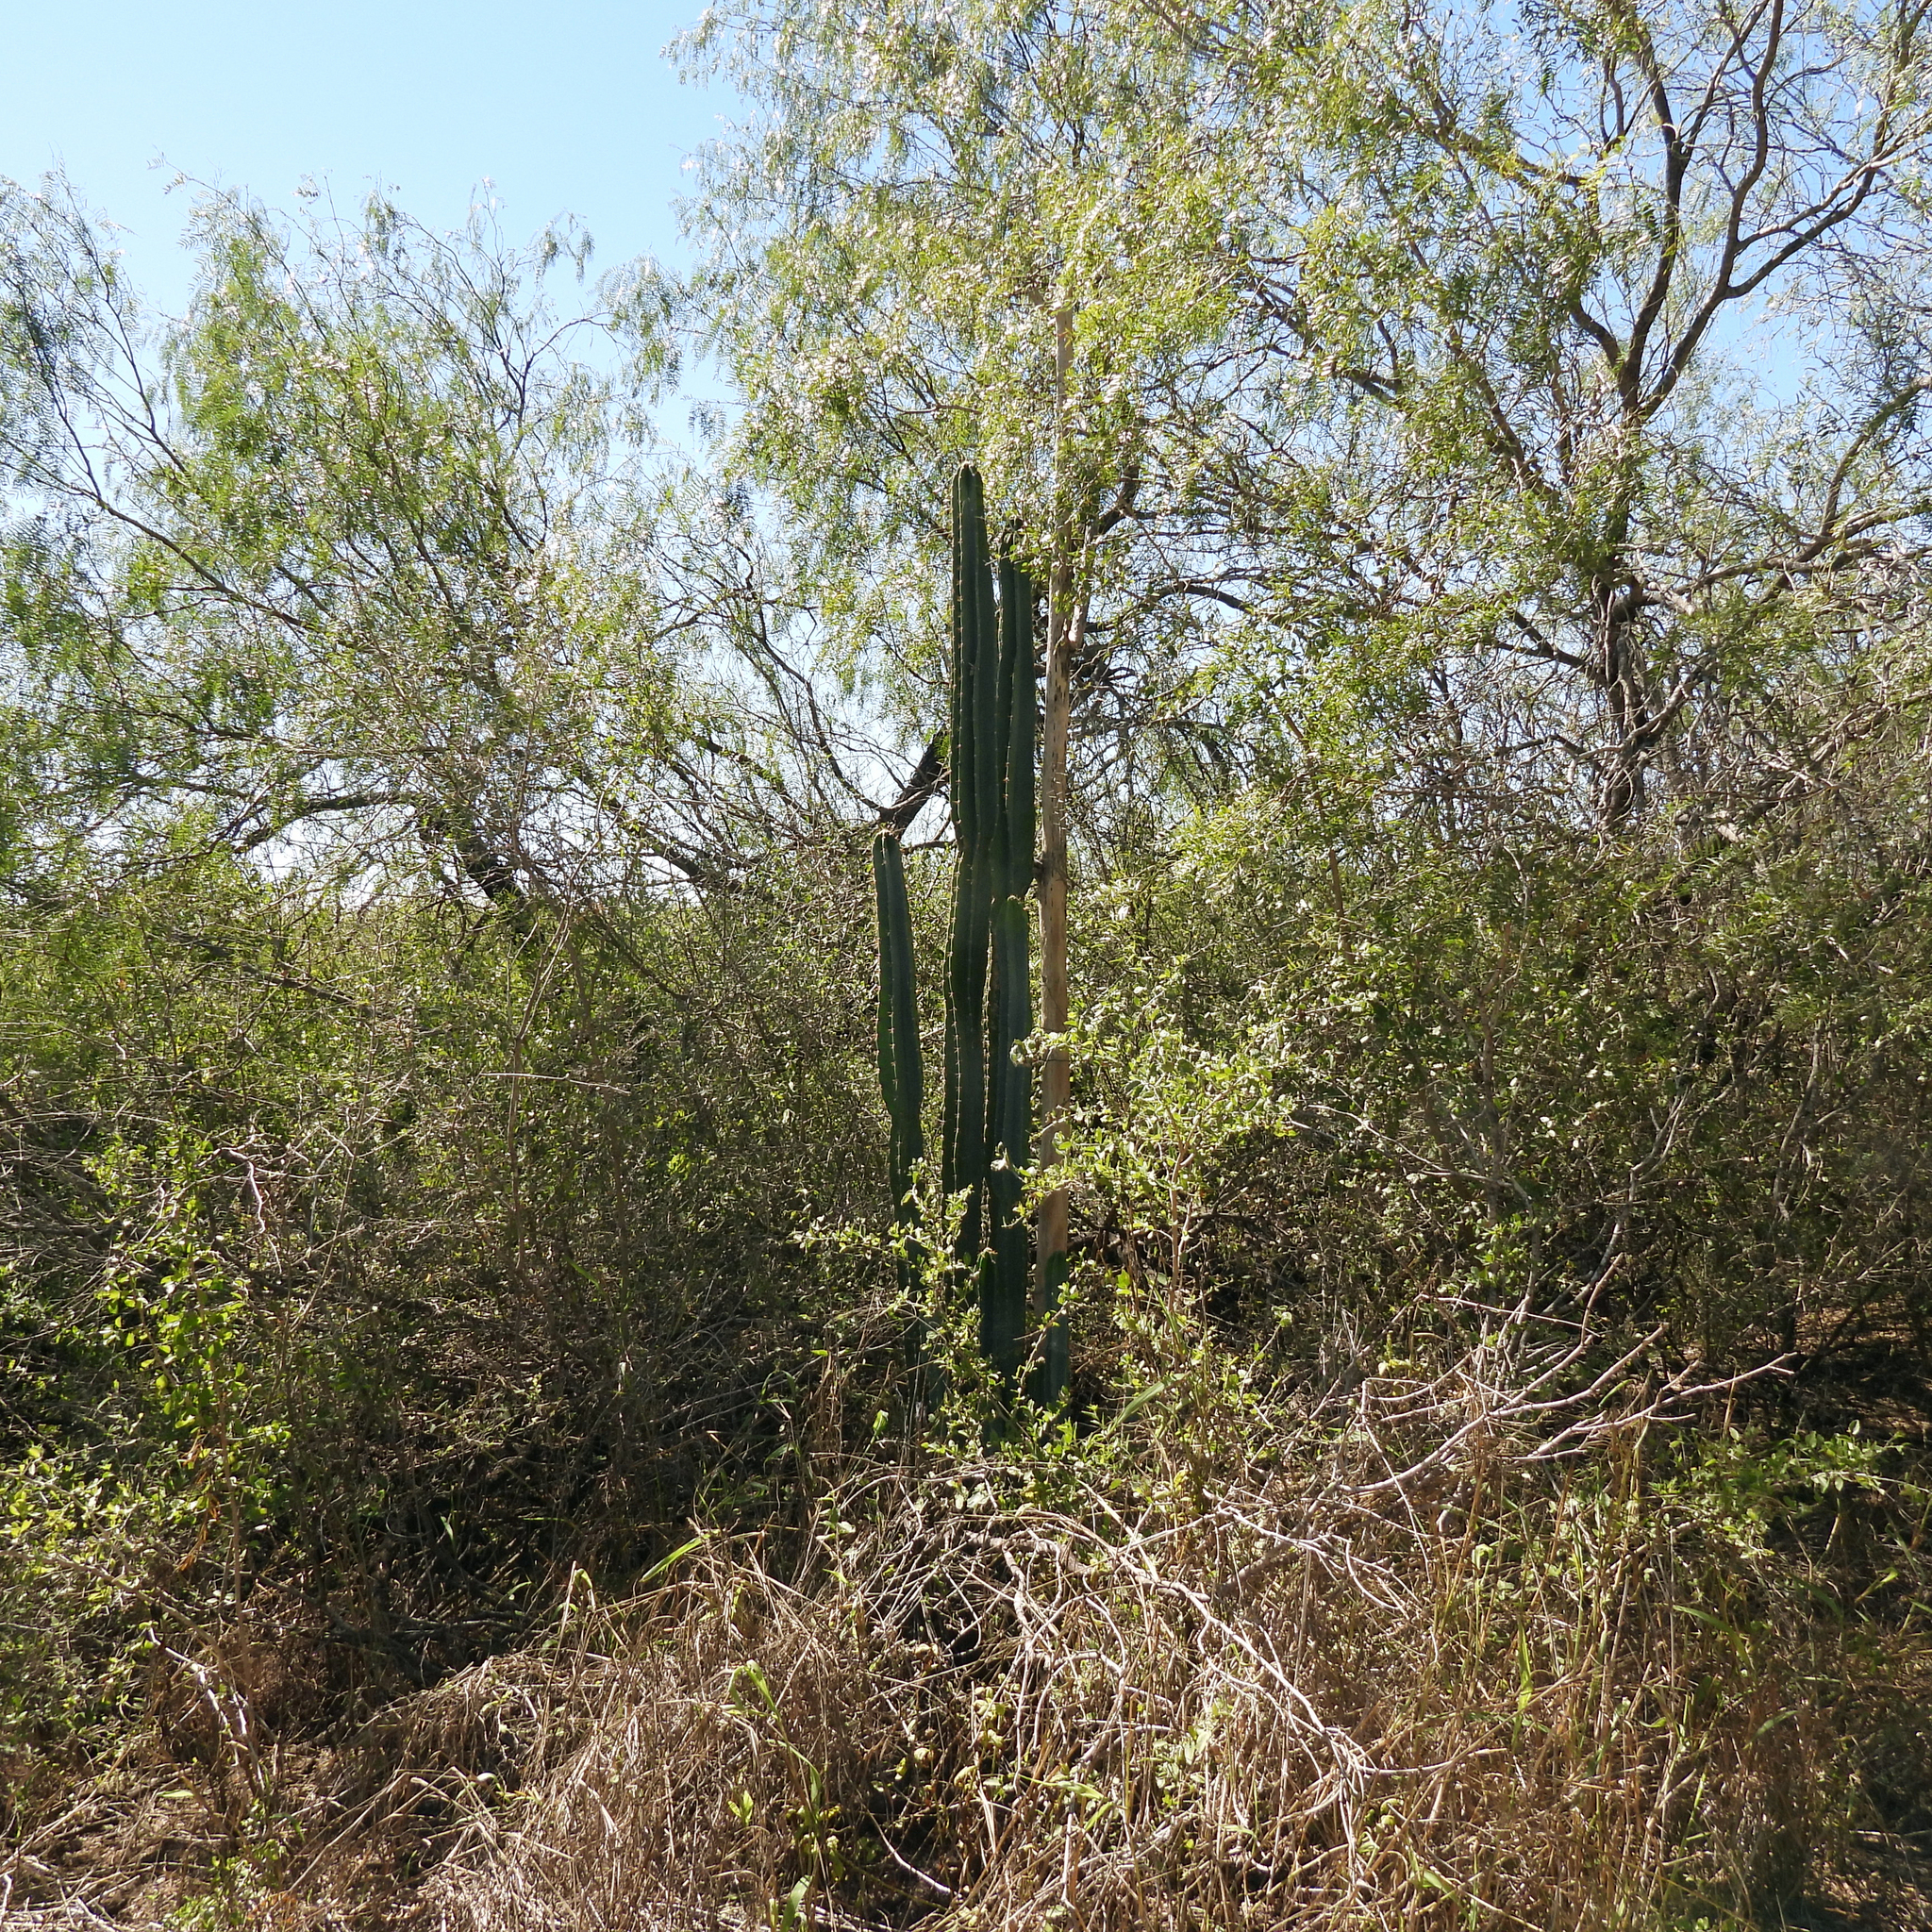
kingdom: Plantae
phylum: Tracheophyta
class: Magnoliopsida
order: Caryophyllales
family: Cactaceae
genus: Acanthocereus
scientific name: Acanthocereus tetragonus
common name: Triangle cactus
